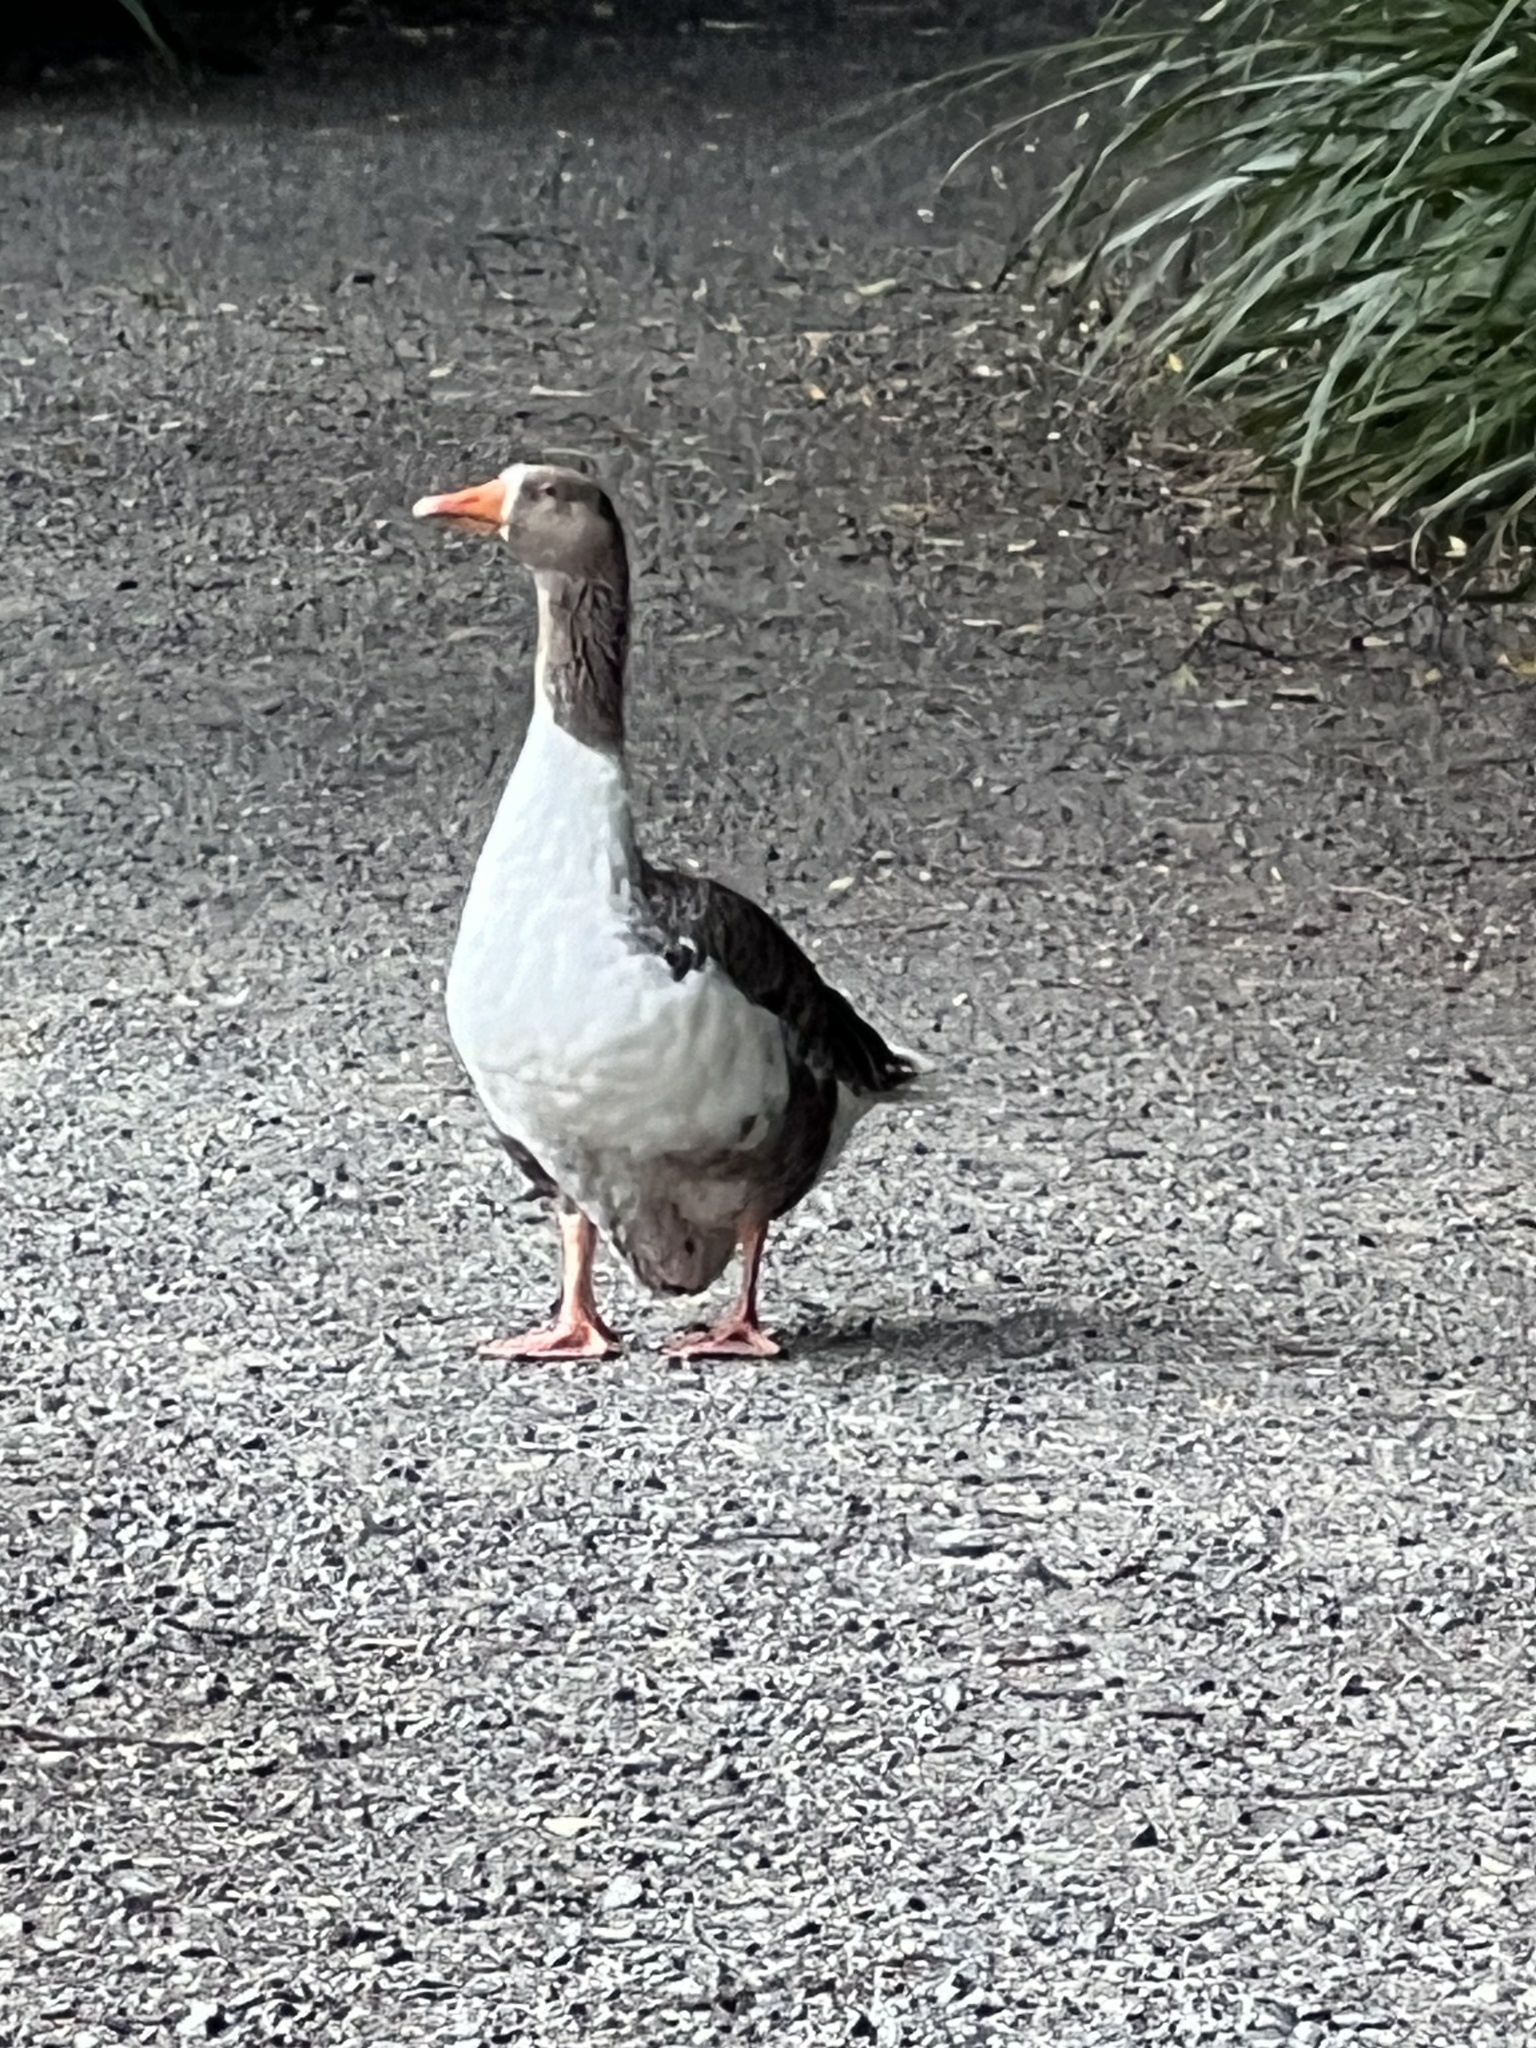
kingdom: Animalia
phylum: Chordata
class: Aves
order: Anseriformes
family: Anatidae
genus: Anser
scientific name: Anser anser
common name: Greylag goose
